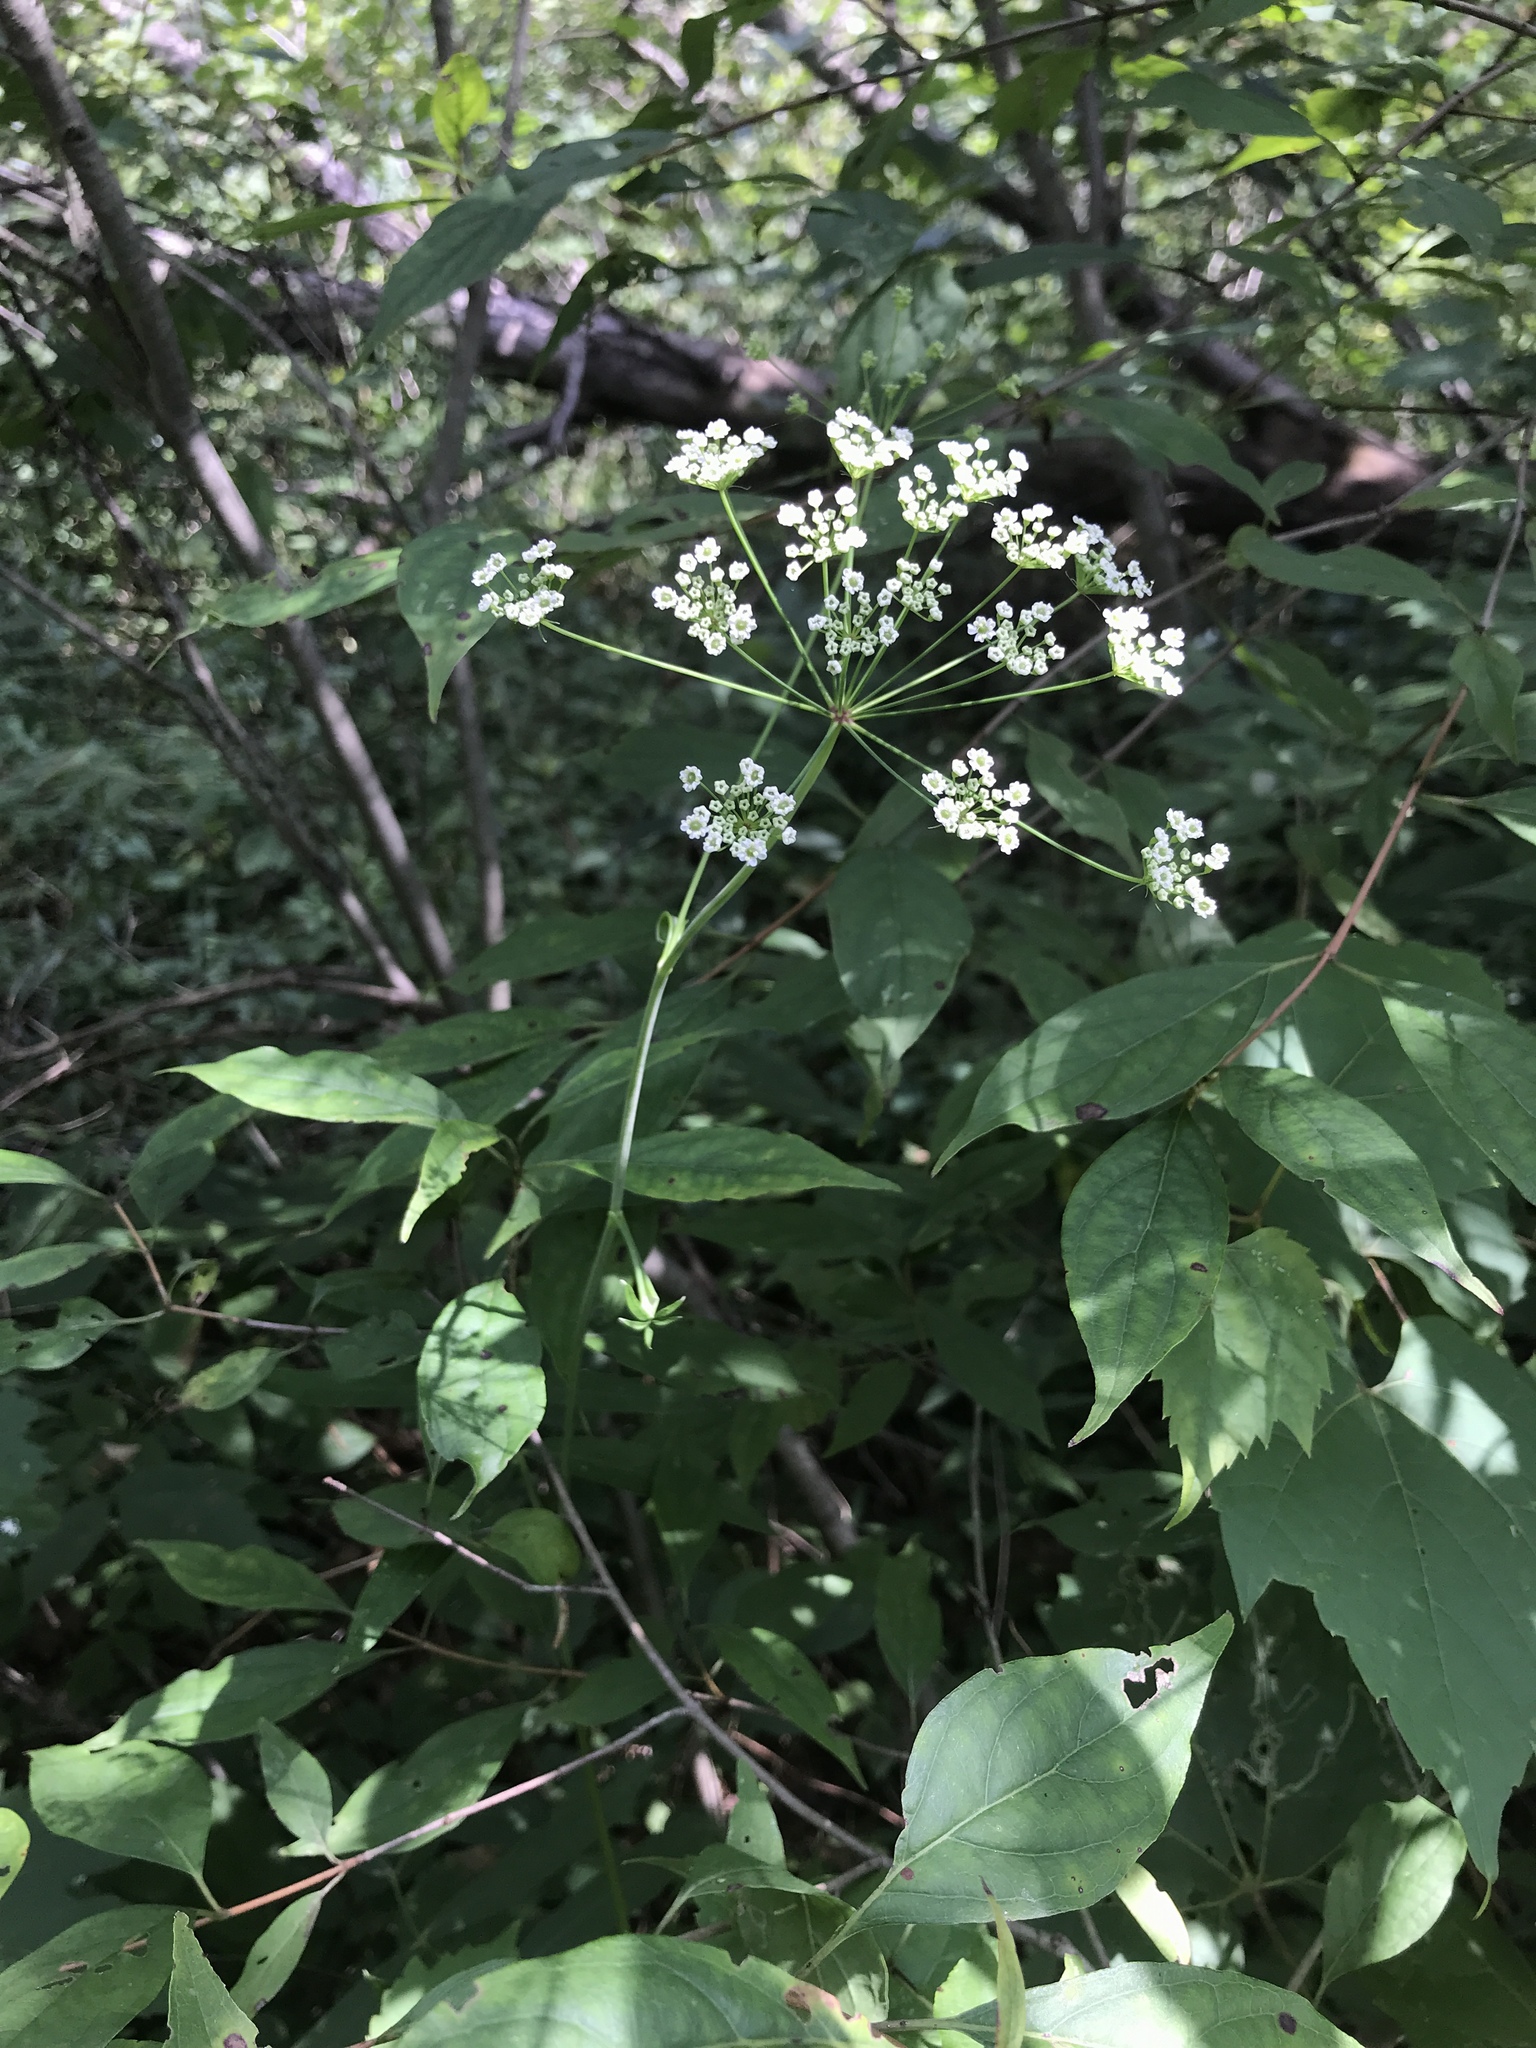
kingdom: Plantae
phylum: Tracheophyta
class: Magnoliopsida
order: Apiales
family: Apiaceae
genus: Oxypolis
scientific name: Oxypolis rigidior
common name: Cowbane
